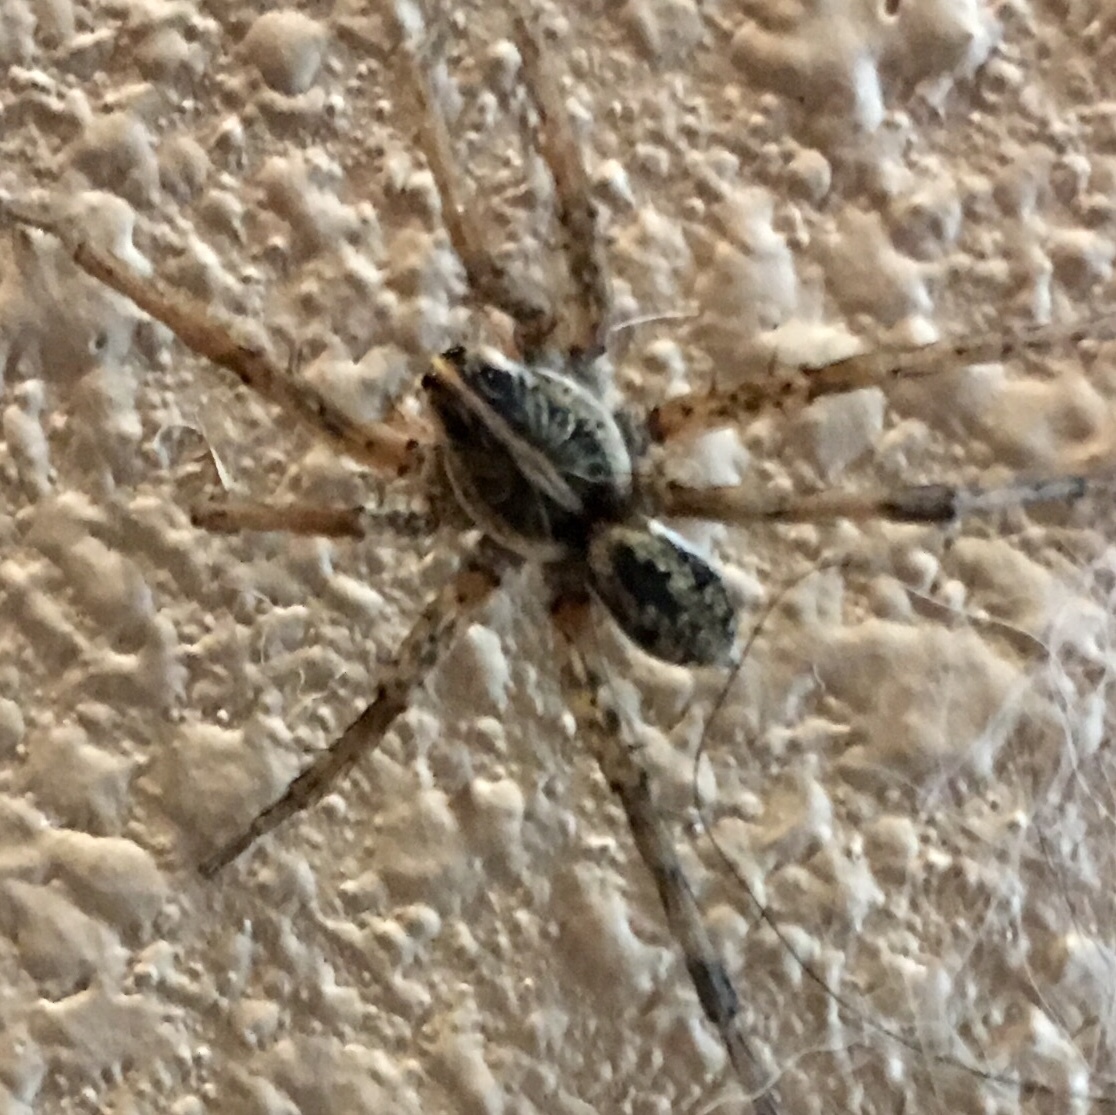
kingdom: Animalia
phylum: Arthropoda
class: Arachnida
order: Araneae
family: Lycosidae
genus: Hogna
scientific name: Hogna antelucana
